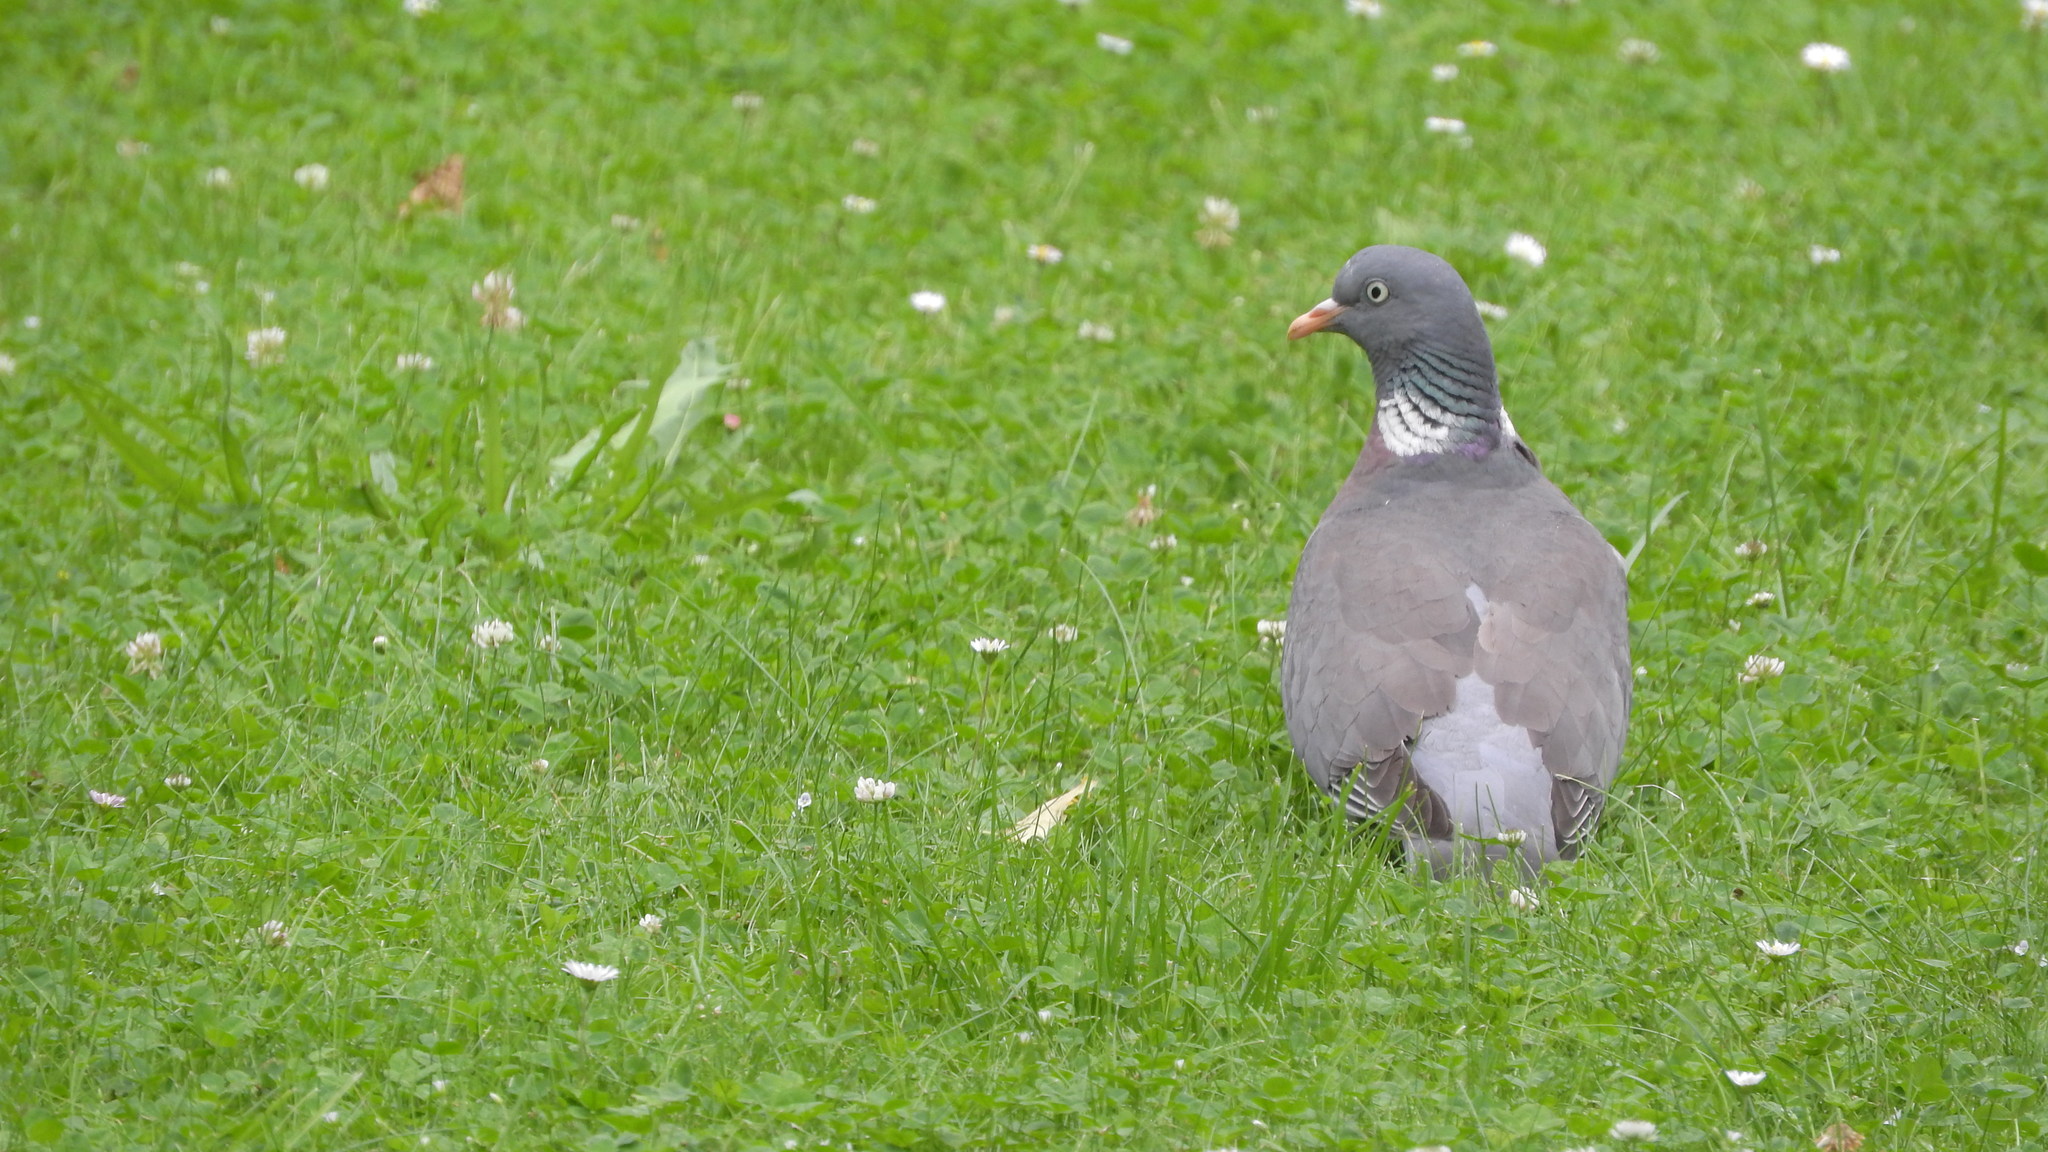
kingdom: Animalia
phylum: Chordata
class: Aves
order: Columbiformes
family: Columbidae
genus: Columba
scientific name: Columba palumbus
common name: Common wood pigeon
